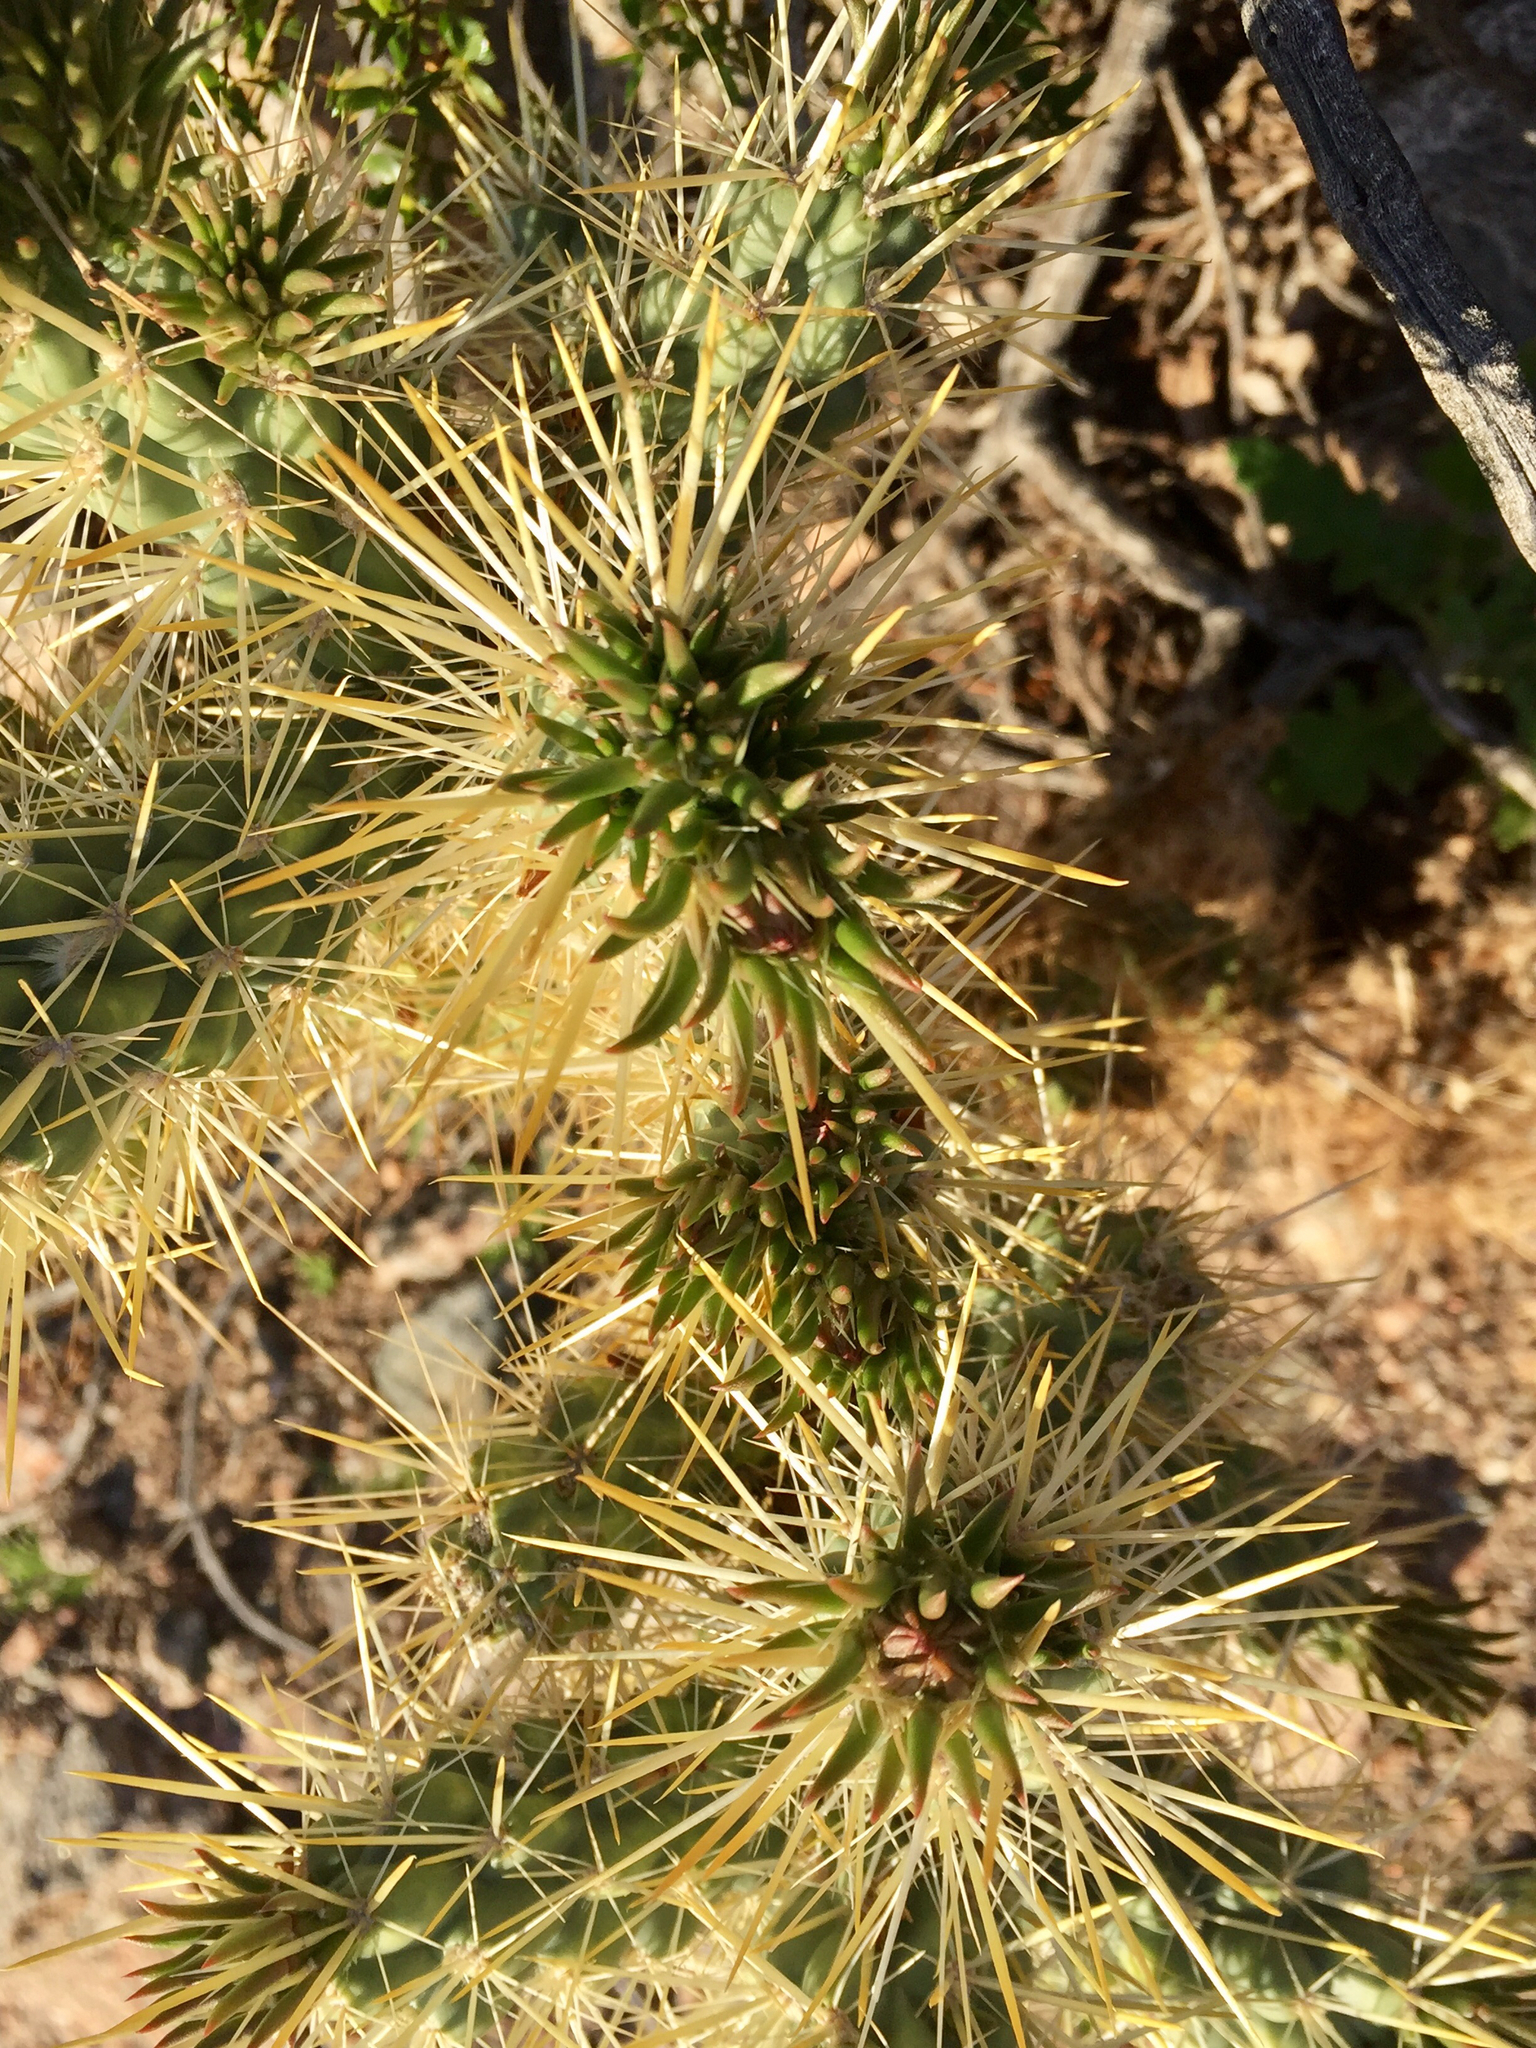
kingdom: Plantae
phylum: Tracheophyta
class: Magnoliopsida
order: Caryophyllales
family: Cactaceae
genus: Cylindropuntia
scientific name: Cylindropuntia echinocarpa
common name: Ground cholla
